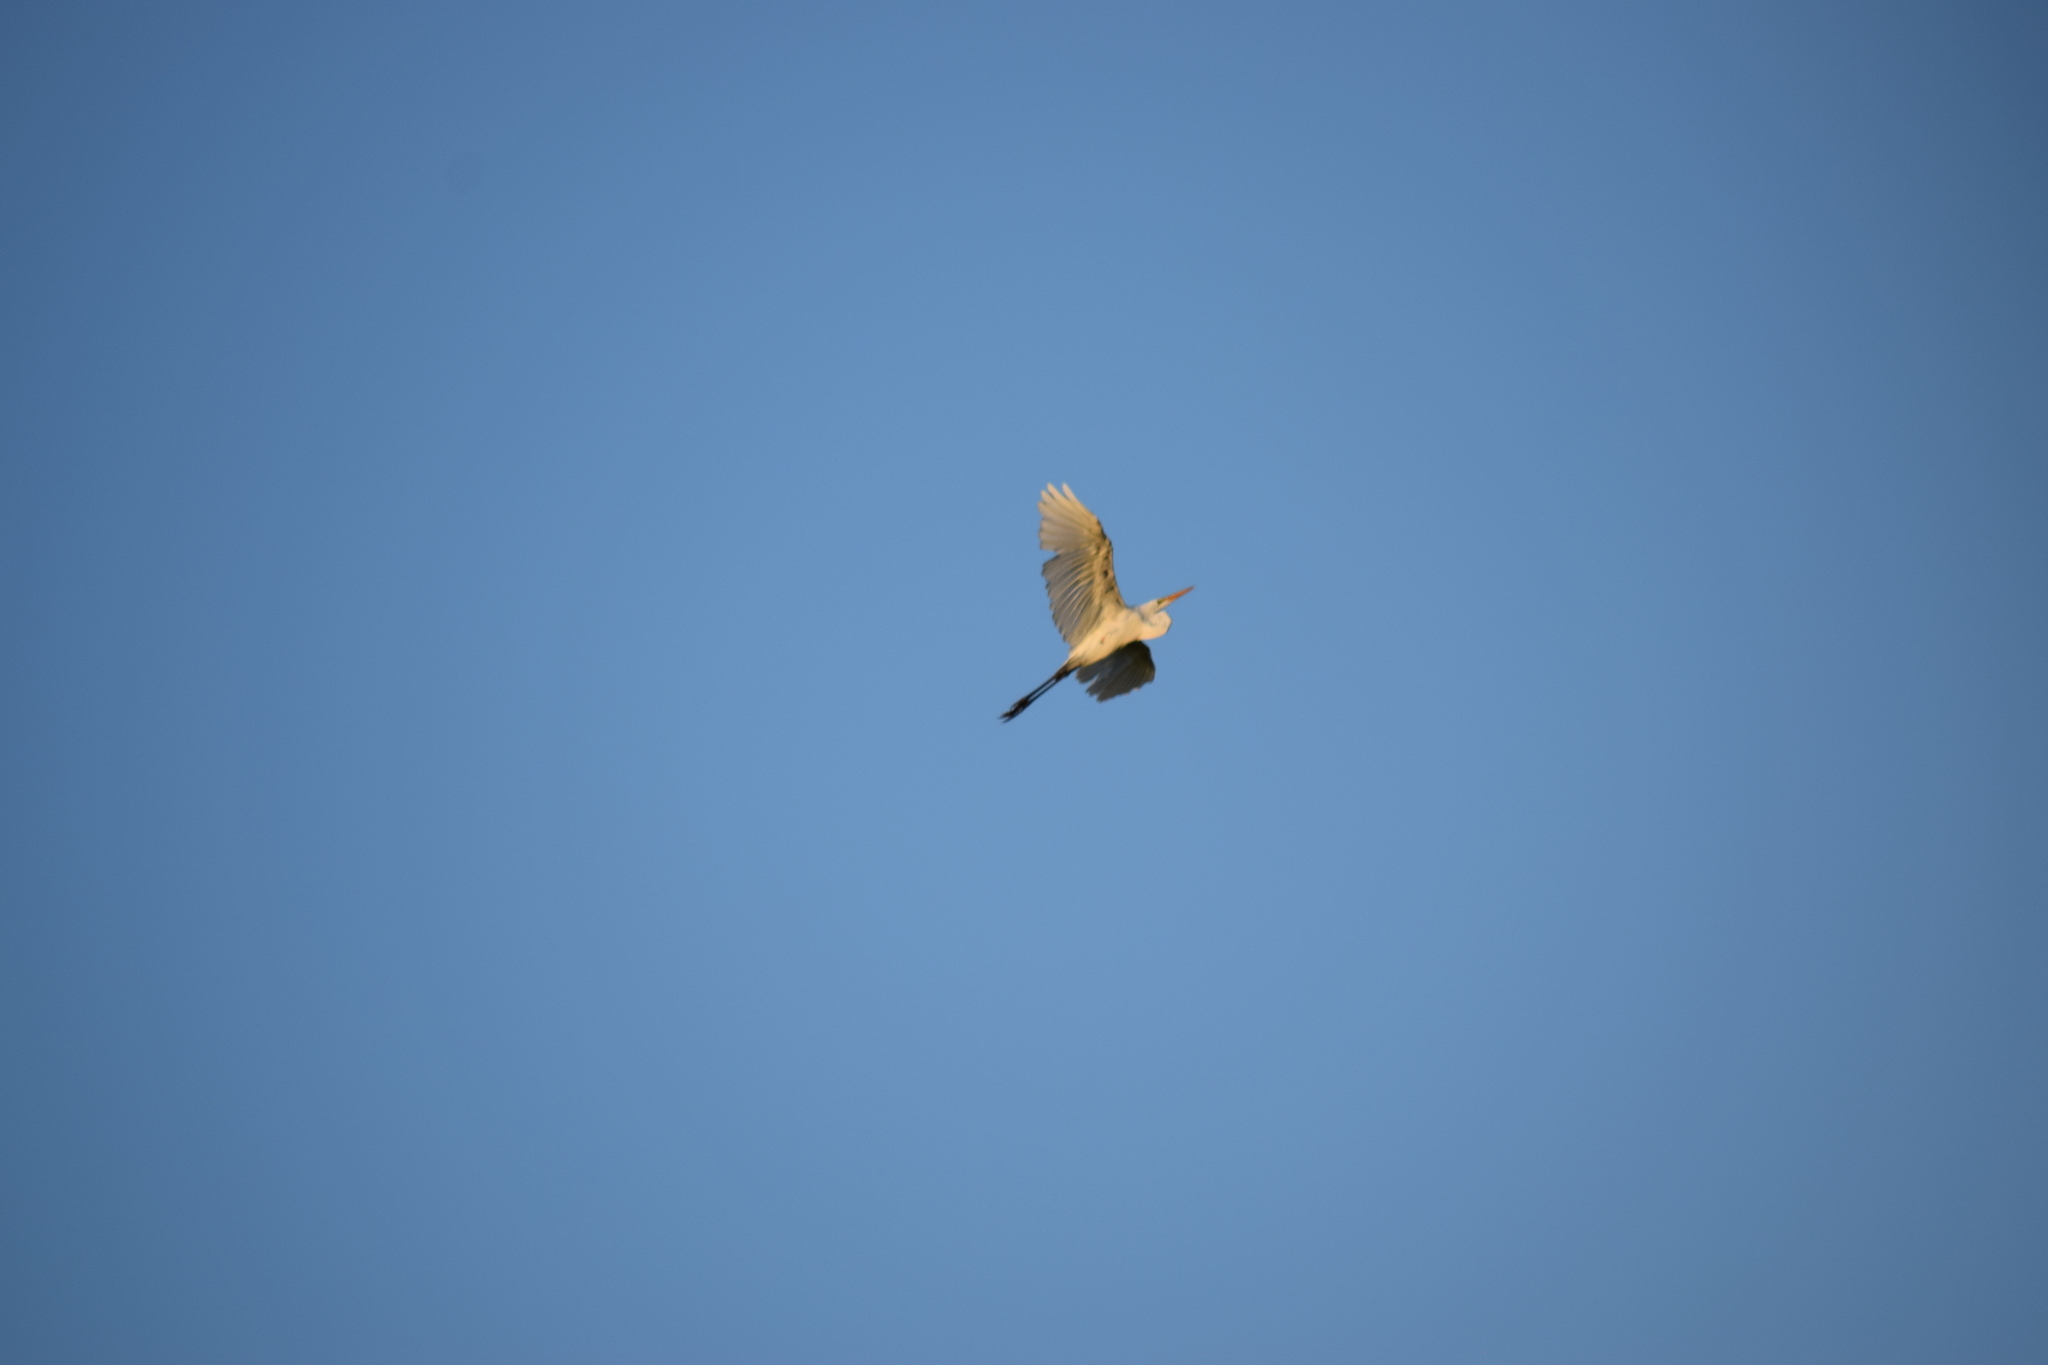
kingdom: Animalia
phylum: Chordata
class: Aves
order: Pelecaniformes
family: Ardeidae
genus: Ardea
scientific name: Ardea alba
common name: Great egret
